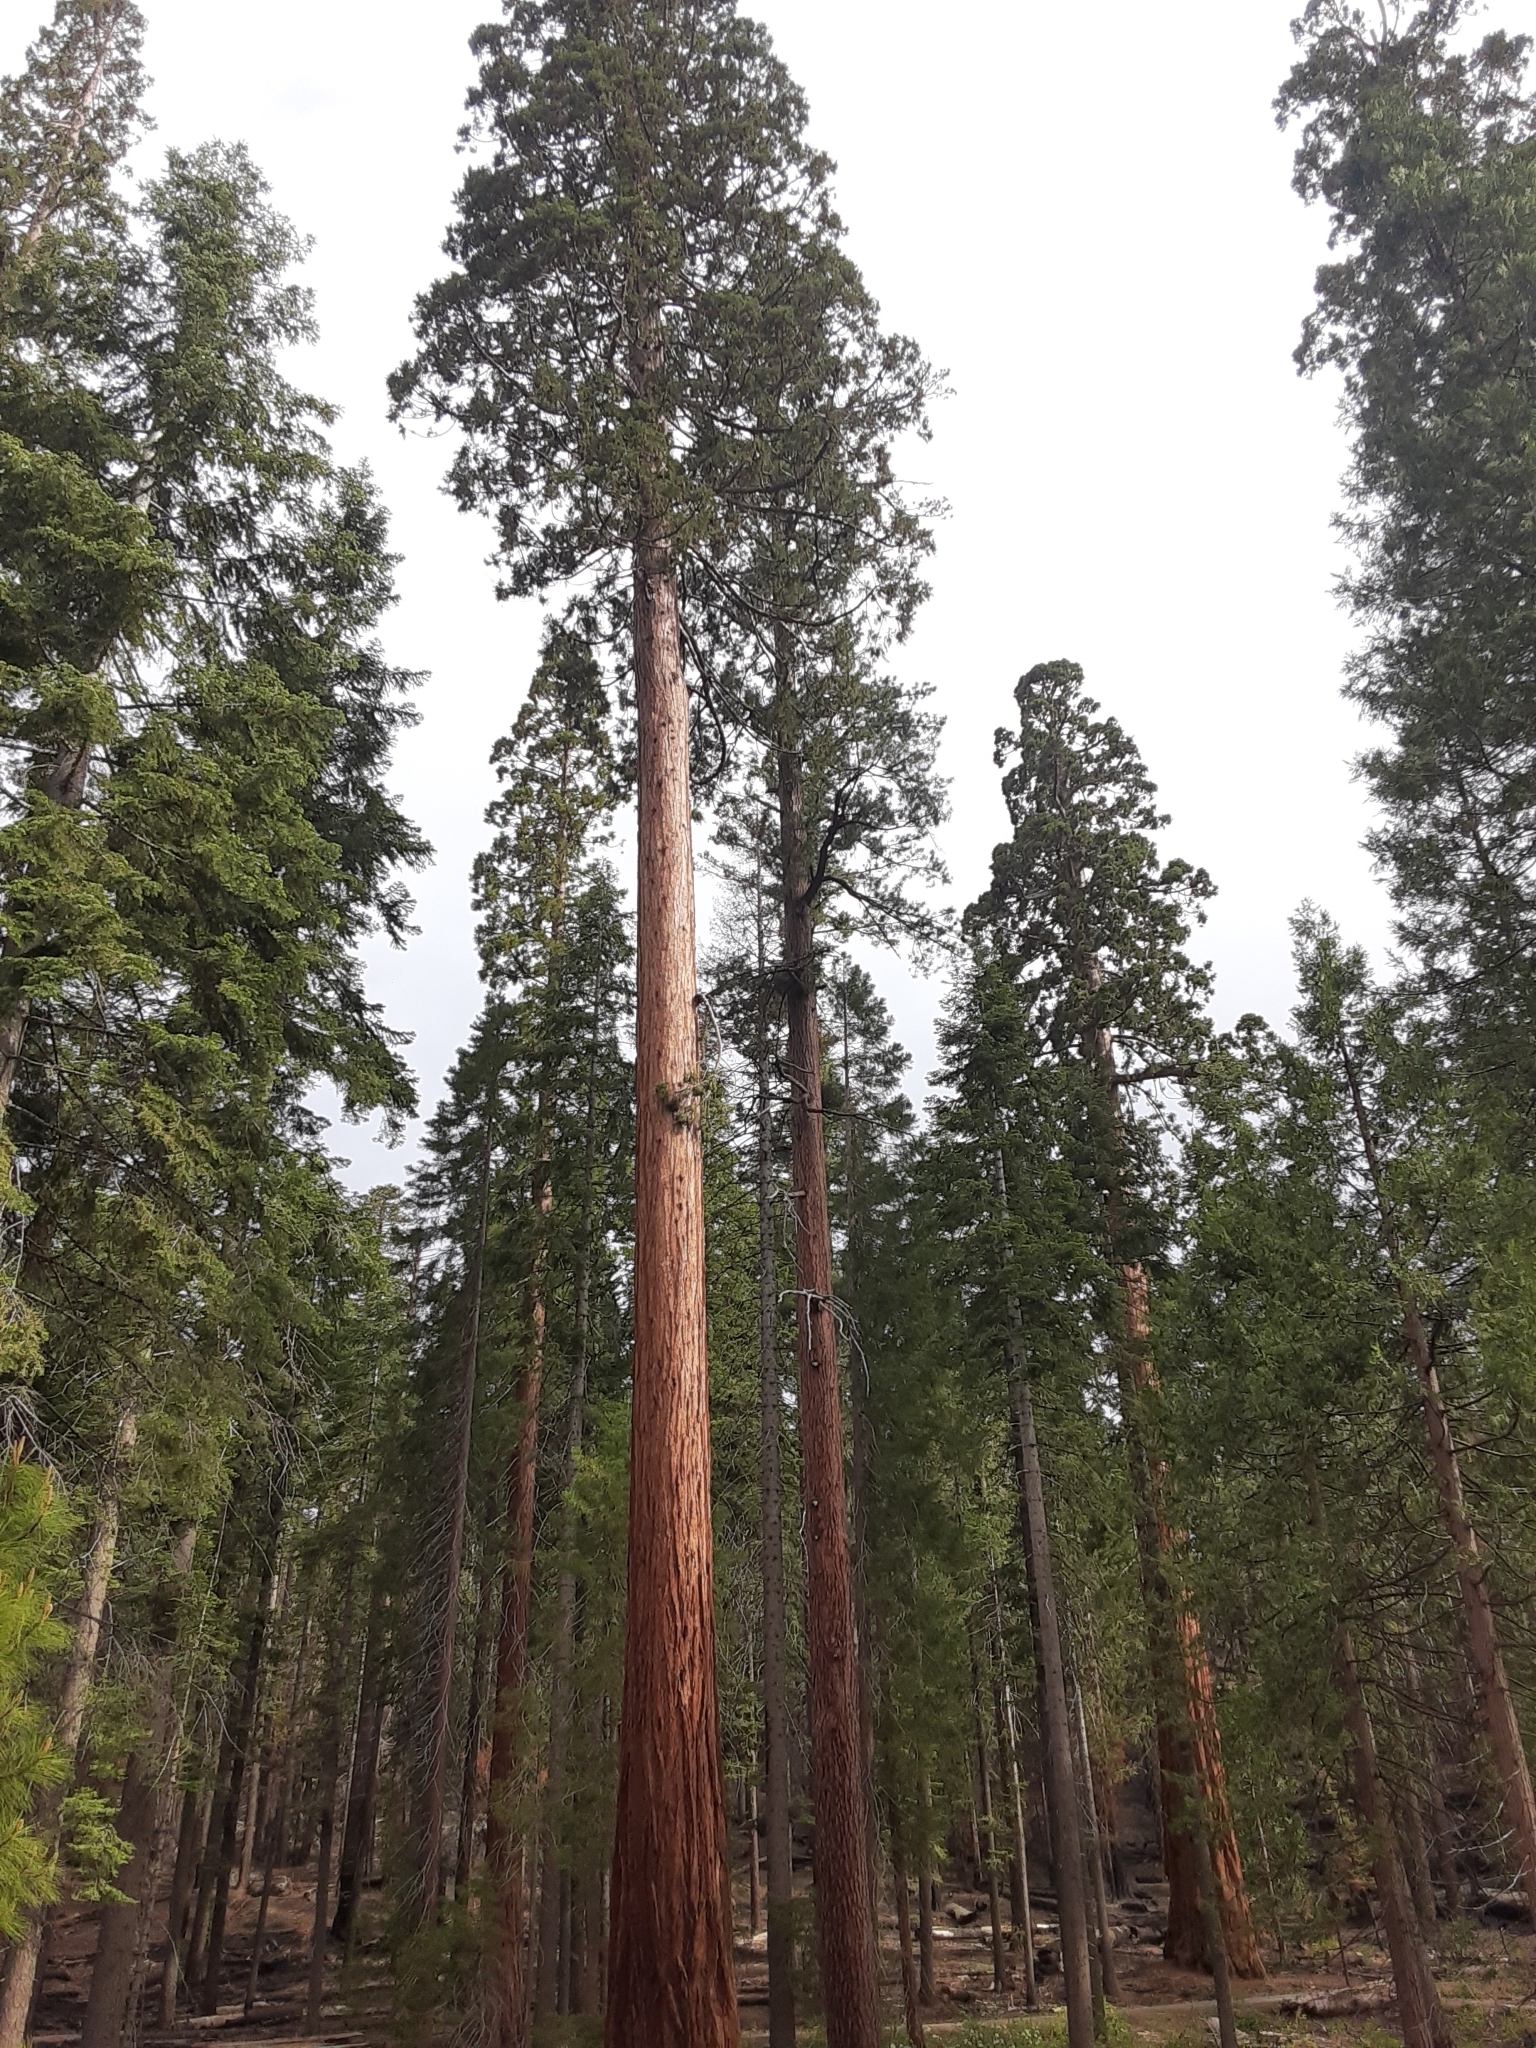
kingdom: Plantae
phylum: Tracheophyta
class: Pinopsida
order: Pinales
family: Cupressaceae
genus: Sequoiadendron
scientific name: Sequoiadendron giganteum
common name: Wellingtonia
